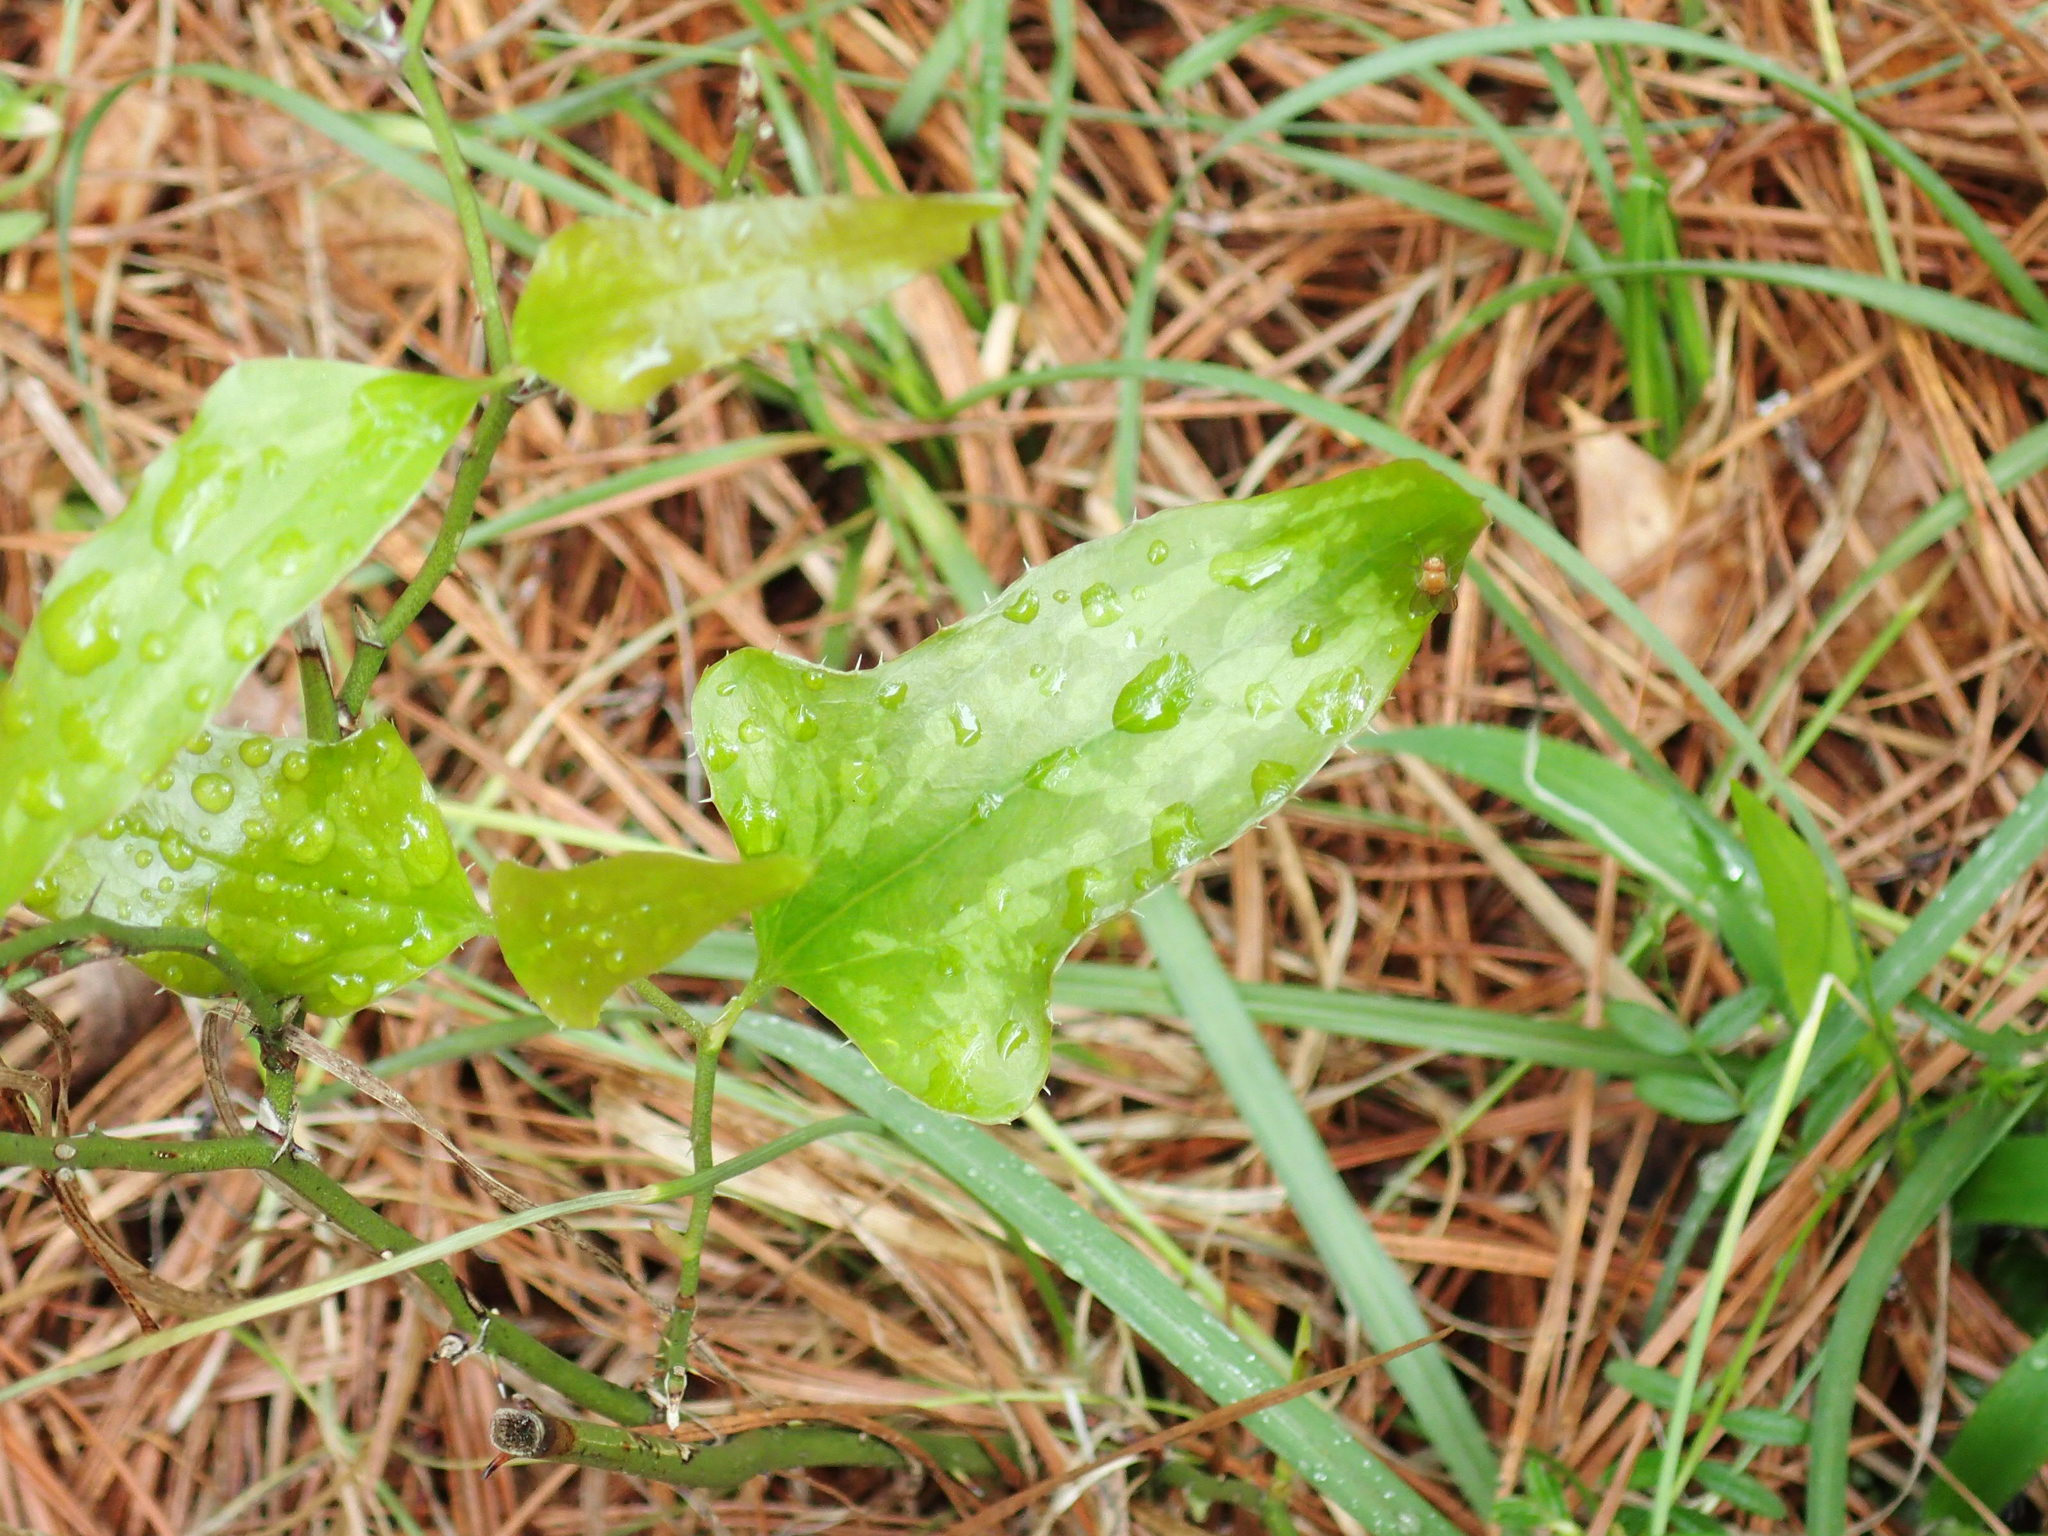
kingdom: Plantae
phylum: Tracheophyta
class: Liliopsida
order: Liliales
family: Smilacaceae
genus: Smilax
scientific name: Smilax bona-nox
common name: Catbrier
